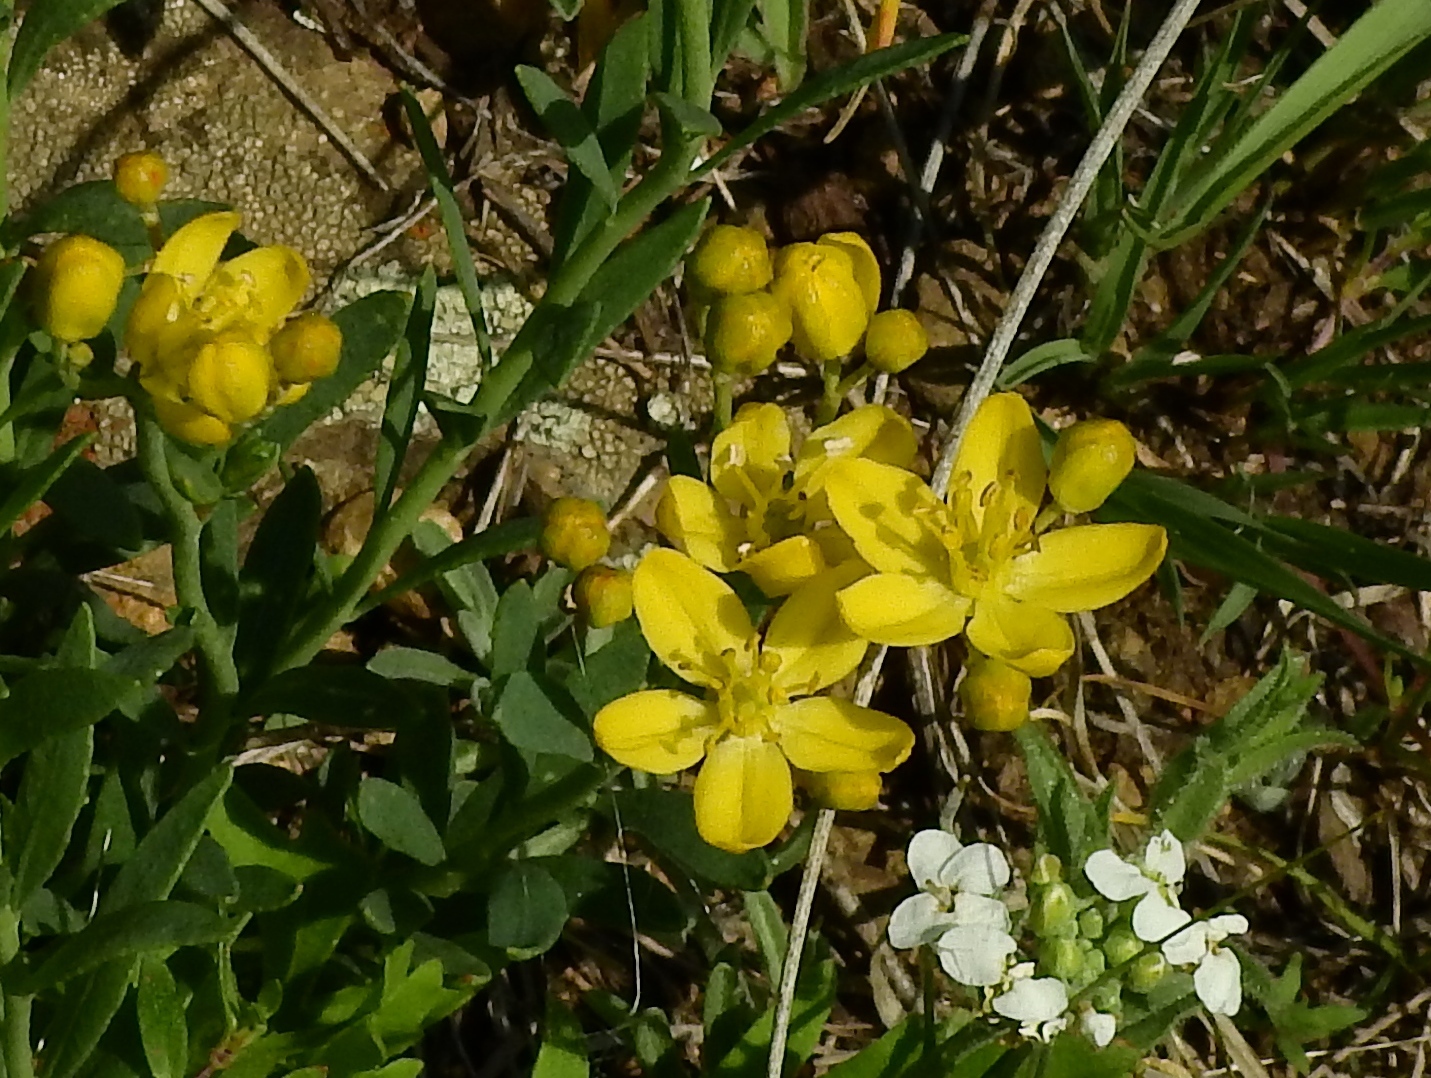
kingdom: Plantae
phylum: Tracheophyta
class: Magnoliopsida
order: Sapindales
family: Rutaceae
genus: Haplophyllum
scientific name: Haplophyllum dauricum
